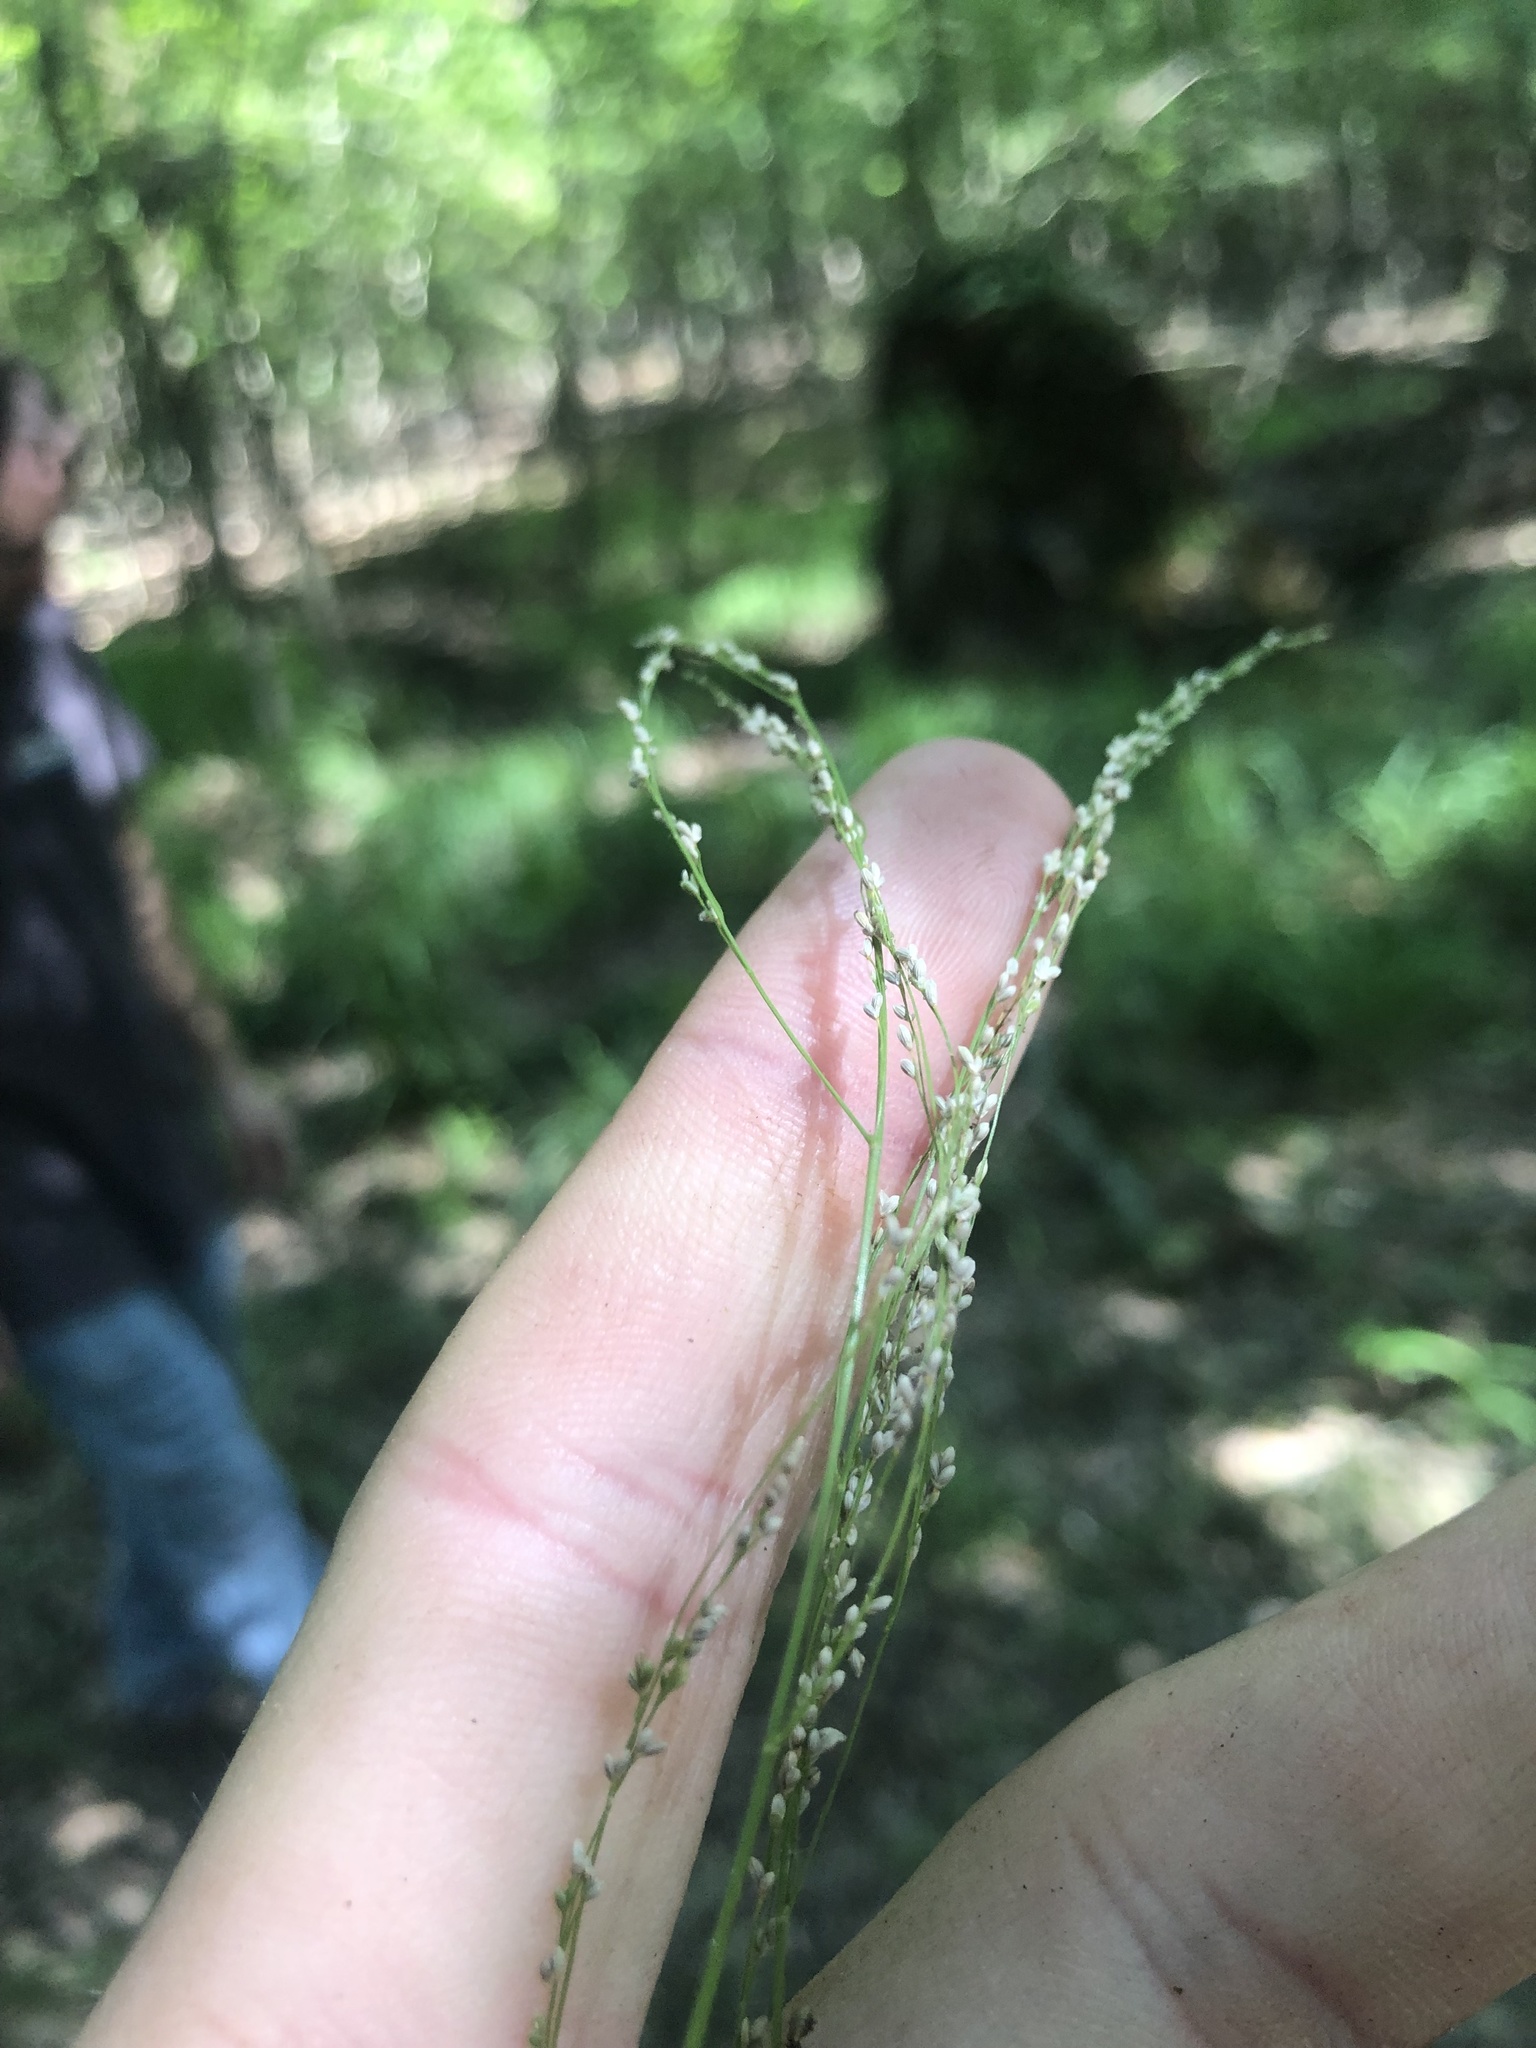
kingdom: Plantae
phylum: Tracheophyta
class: Liliopsida
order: Poales
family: Poaceae
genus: Glyceria
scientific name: Glyceria striata
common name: Fowl manna grass
